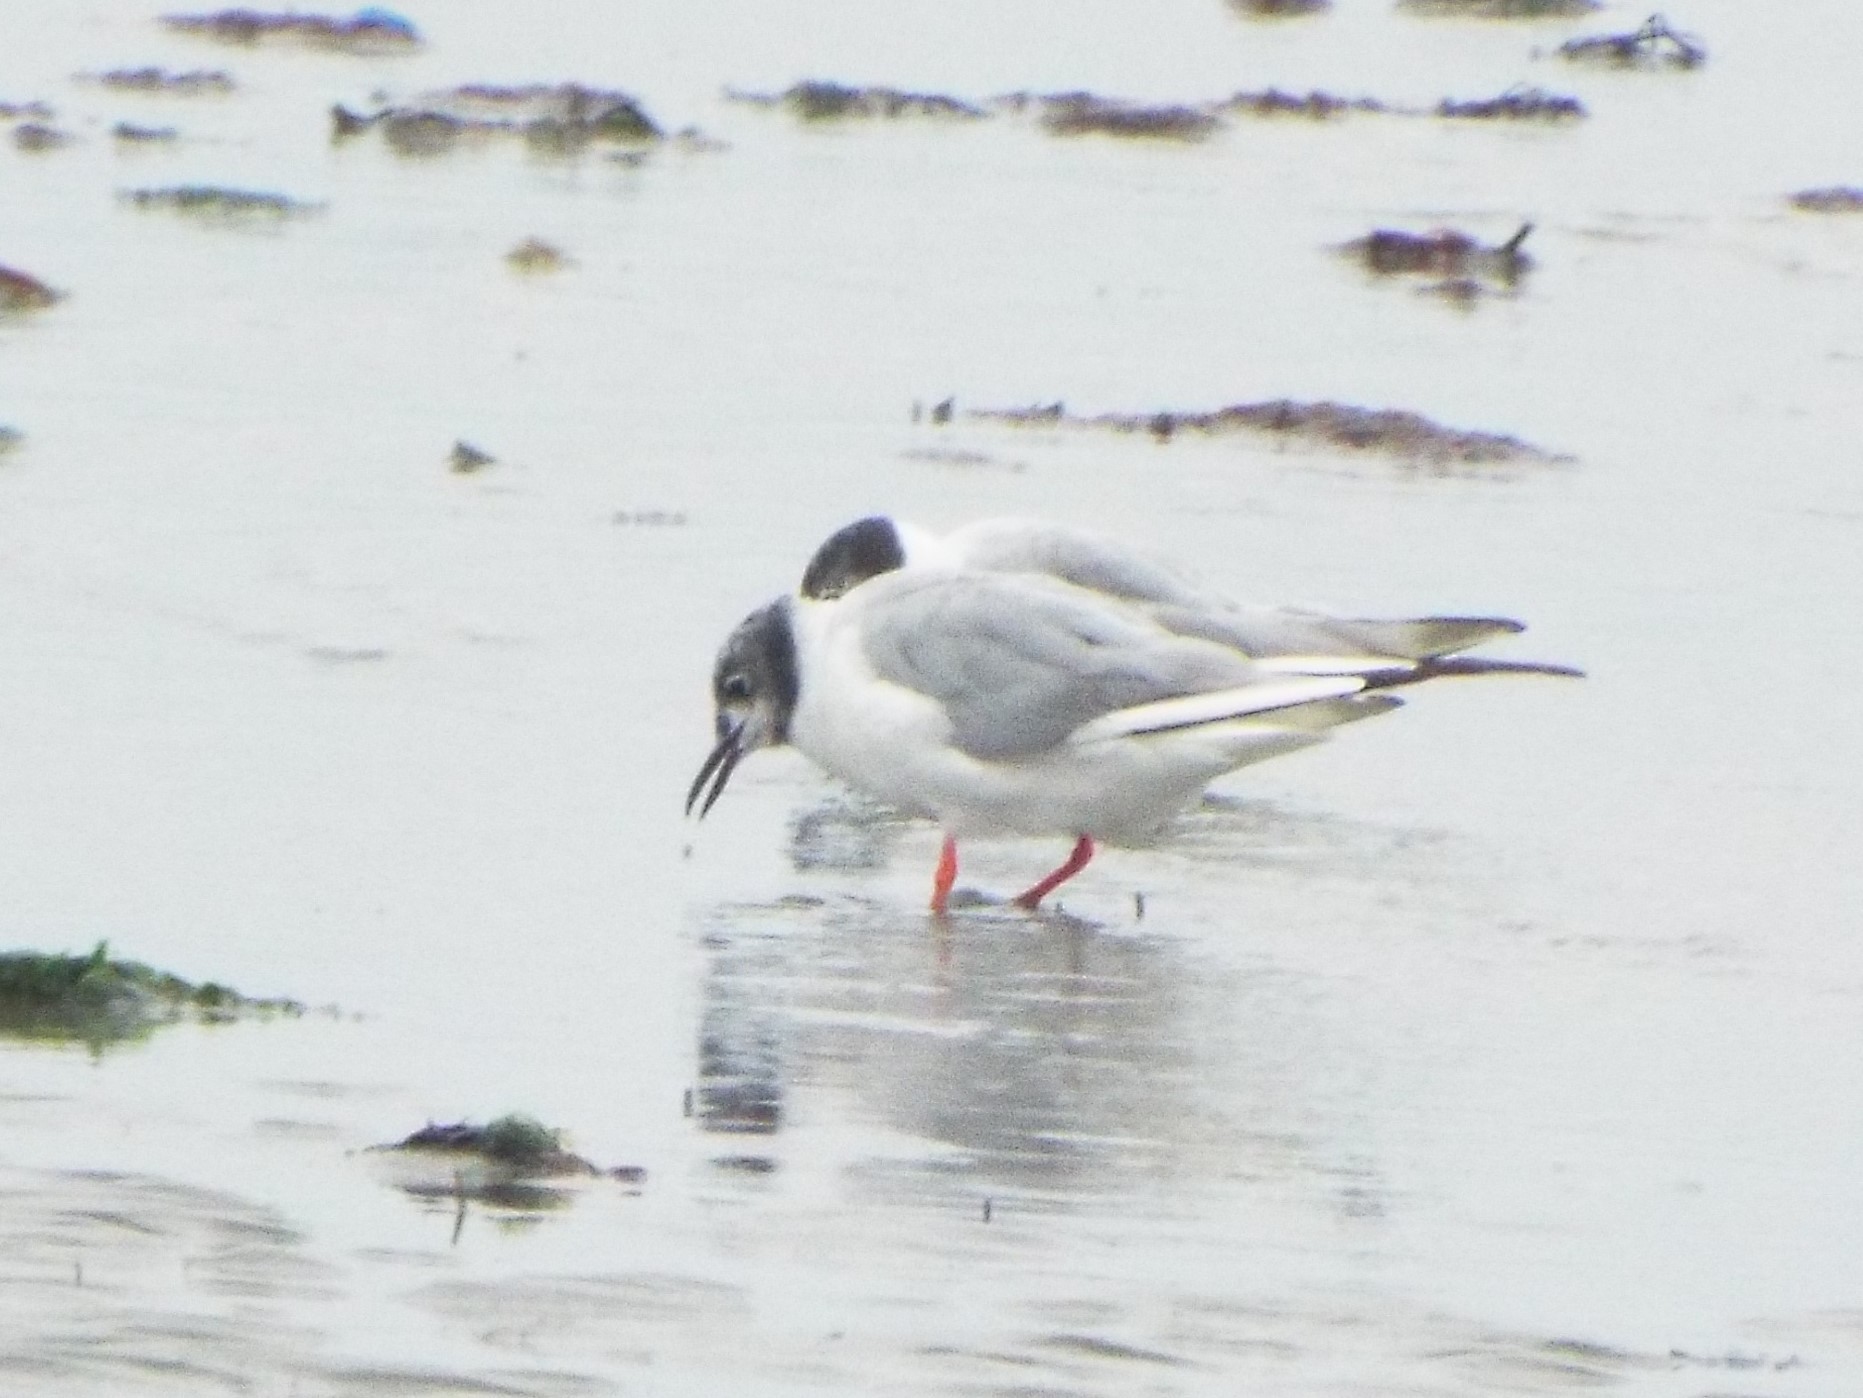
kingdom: Animalia
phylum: Chordata
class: Aves
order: Charadriiformes
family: Laridae
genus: Chroicocephalus
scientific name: Chroicocephalus philadelphia
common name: Bonaparte's gull
